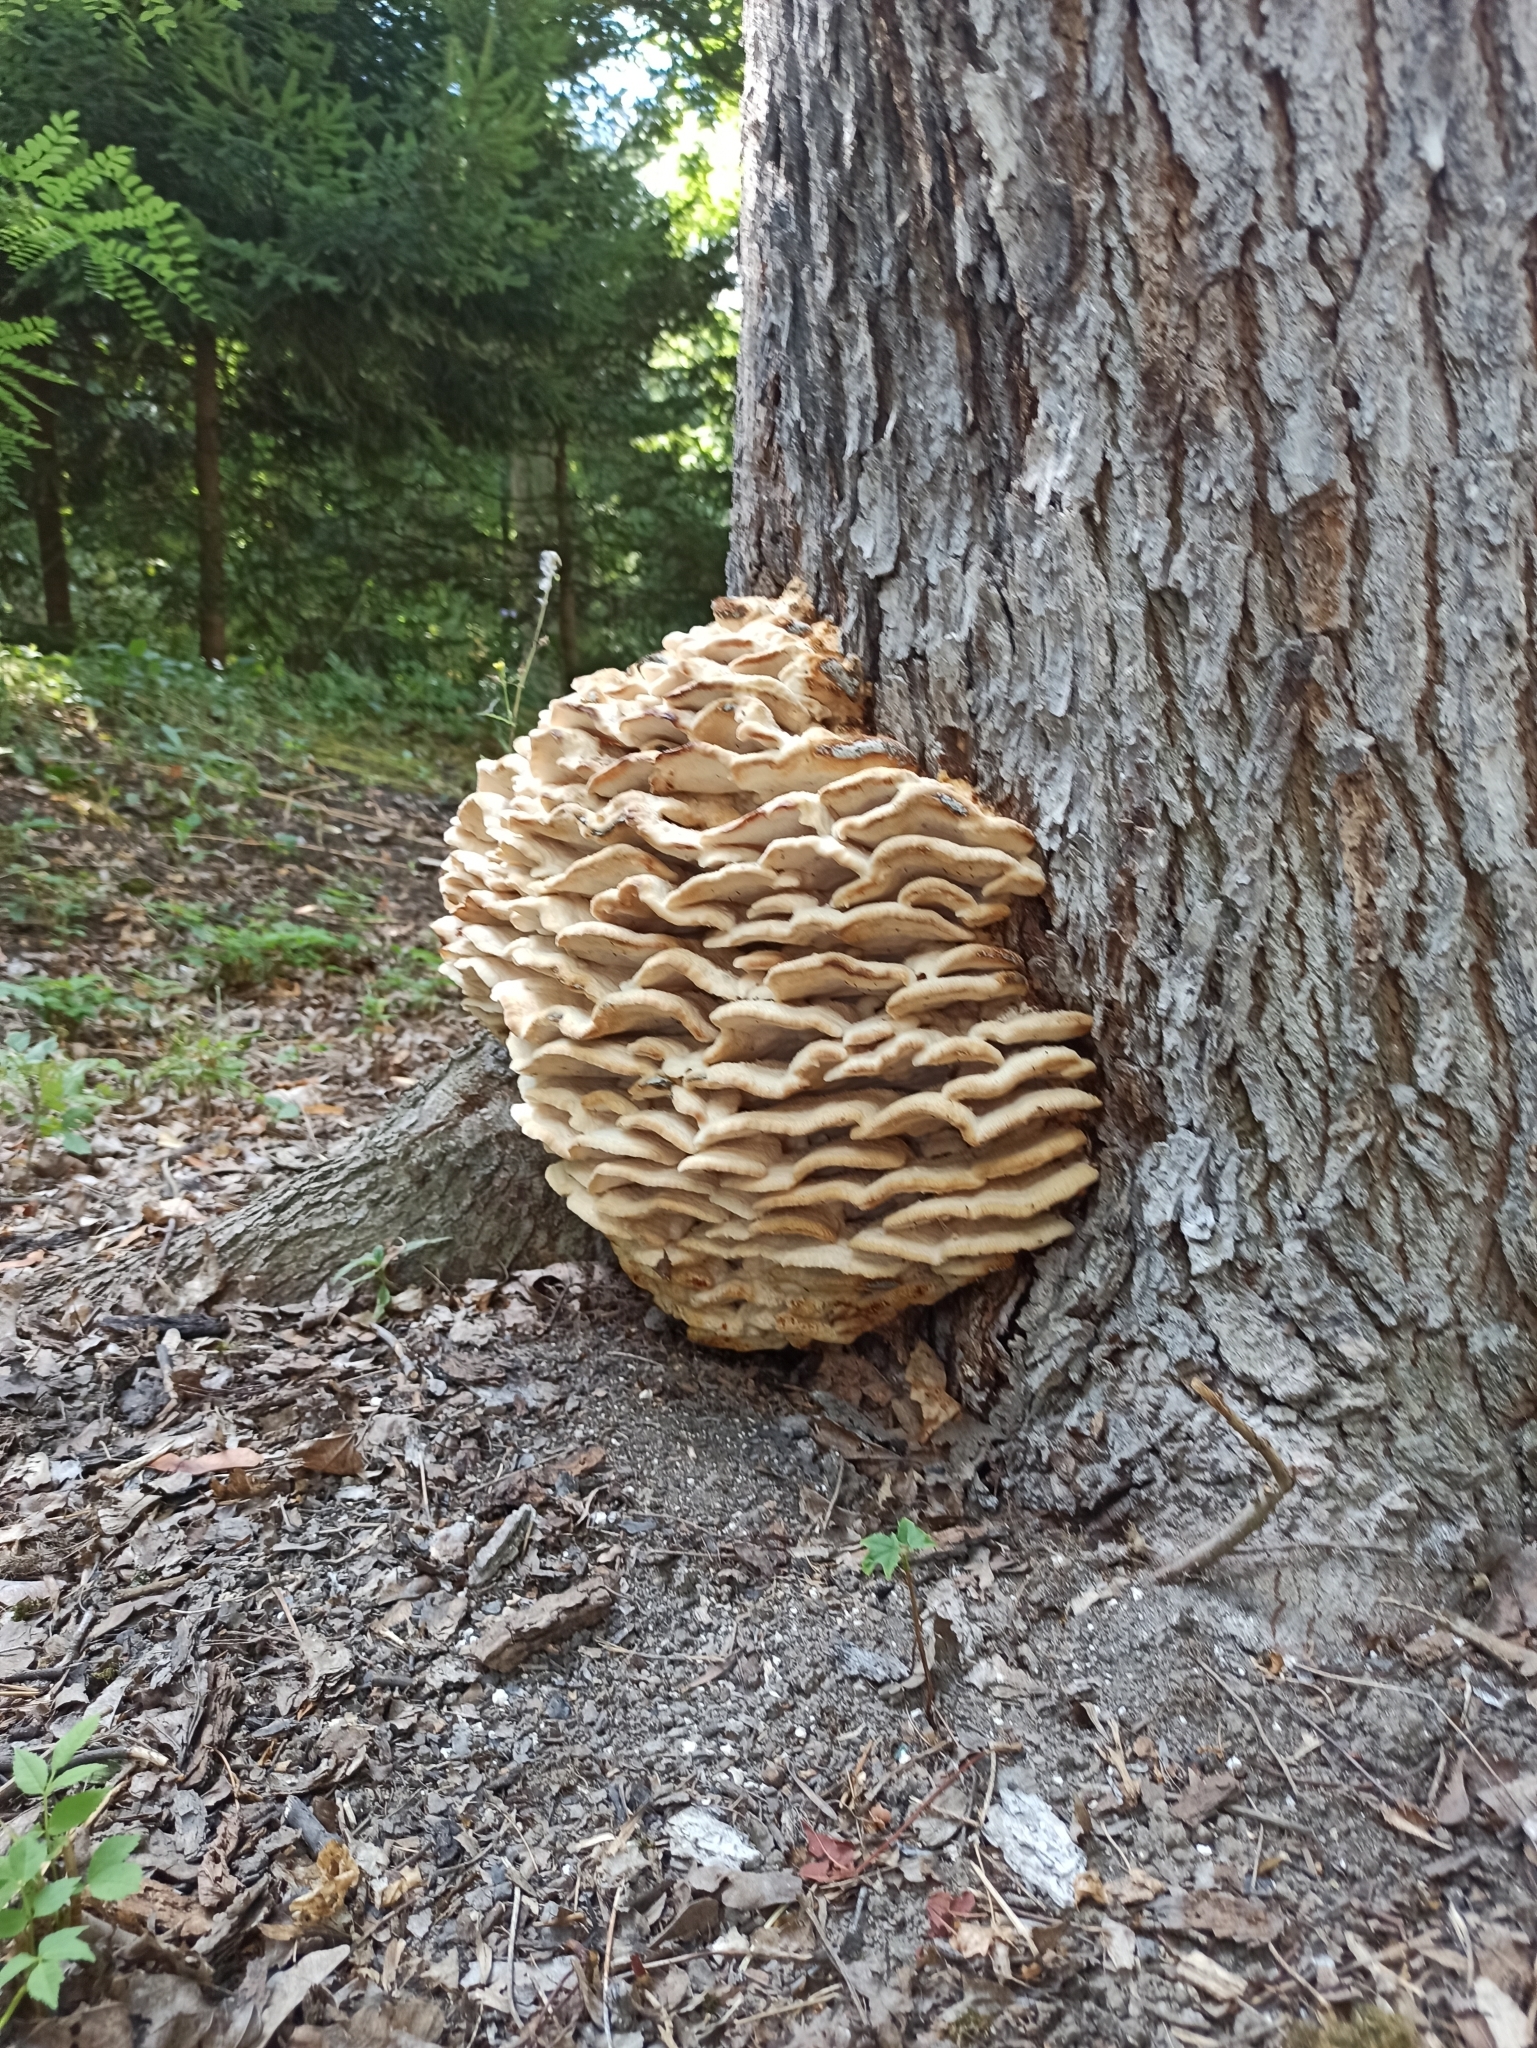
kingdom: Fungi
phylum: Basidiomycota
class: Agaricomycetes
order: Polyporales
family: Meruliaceae
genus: Climacodon
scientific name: Climacodon septentrionalis
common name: Northern tooth
